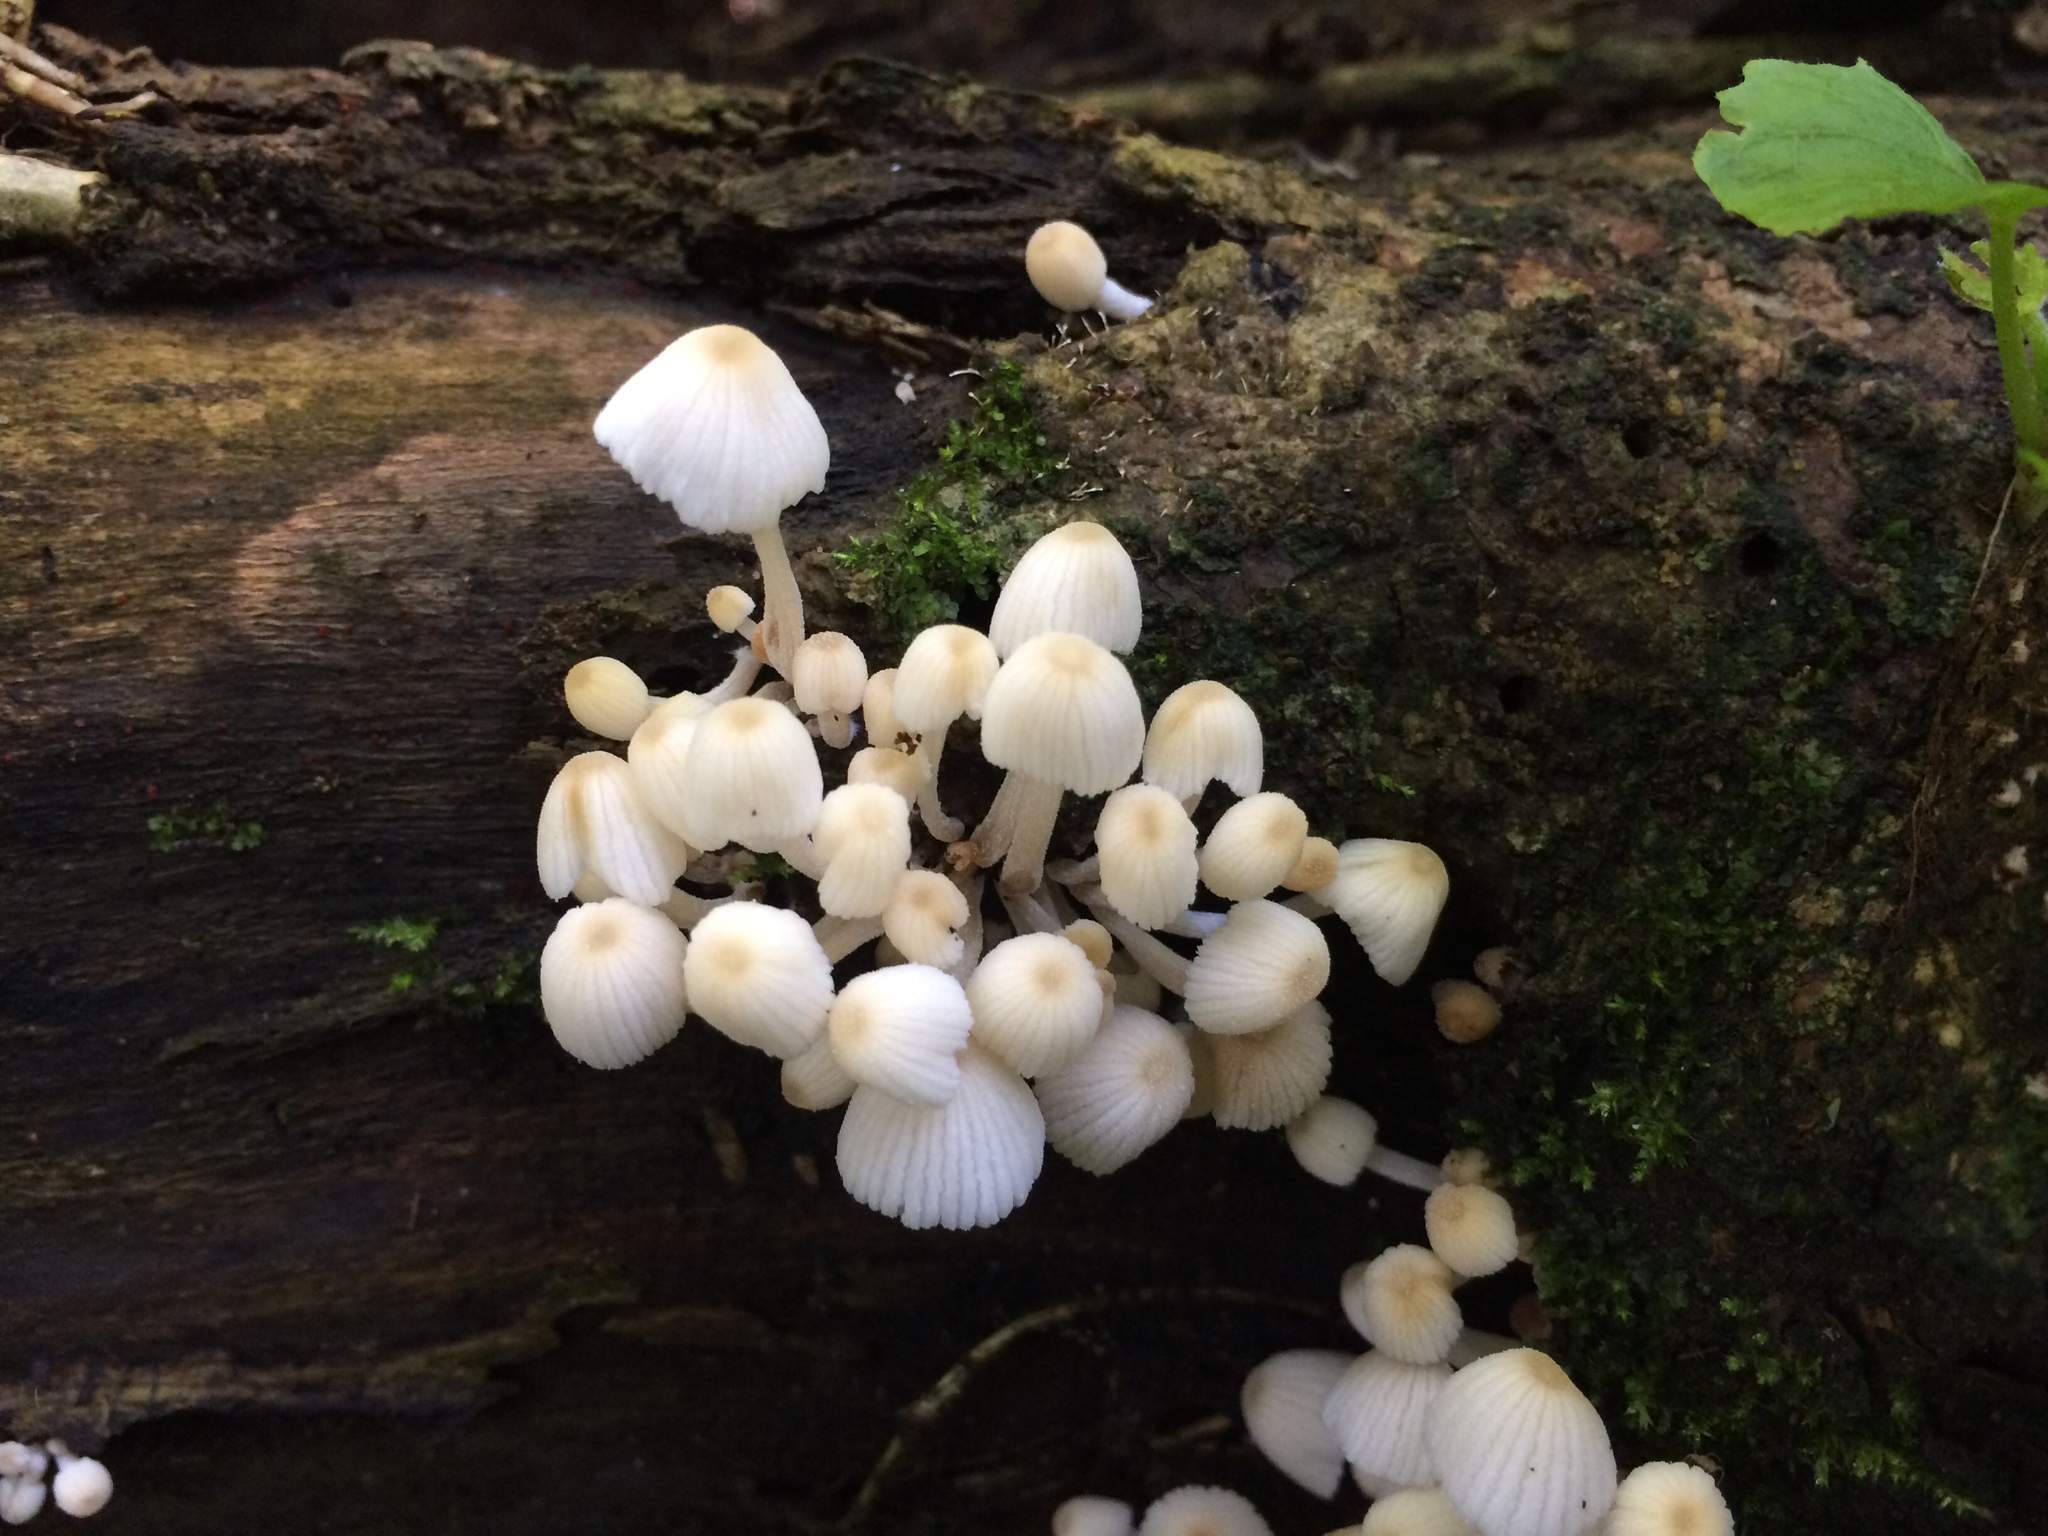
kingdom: Fungi
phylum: Basidiomycota
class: Agaricomycetes
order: Agaricales
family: Psathyrellaceae
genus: Coprinellus
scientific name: Coprinellus disseminatus
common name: Fairies' bonnets
